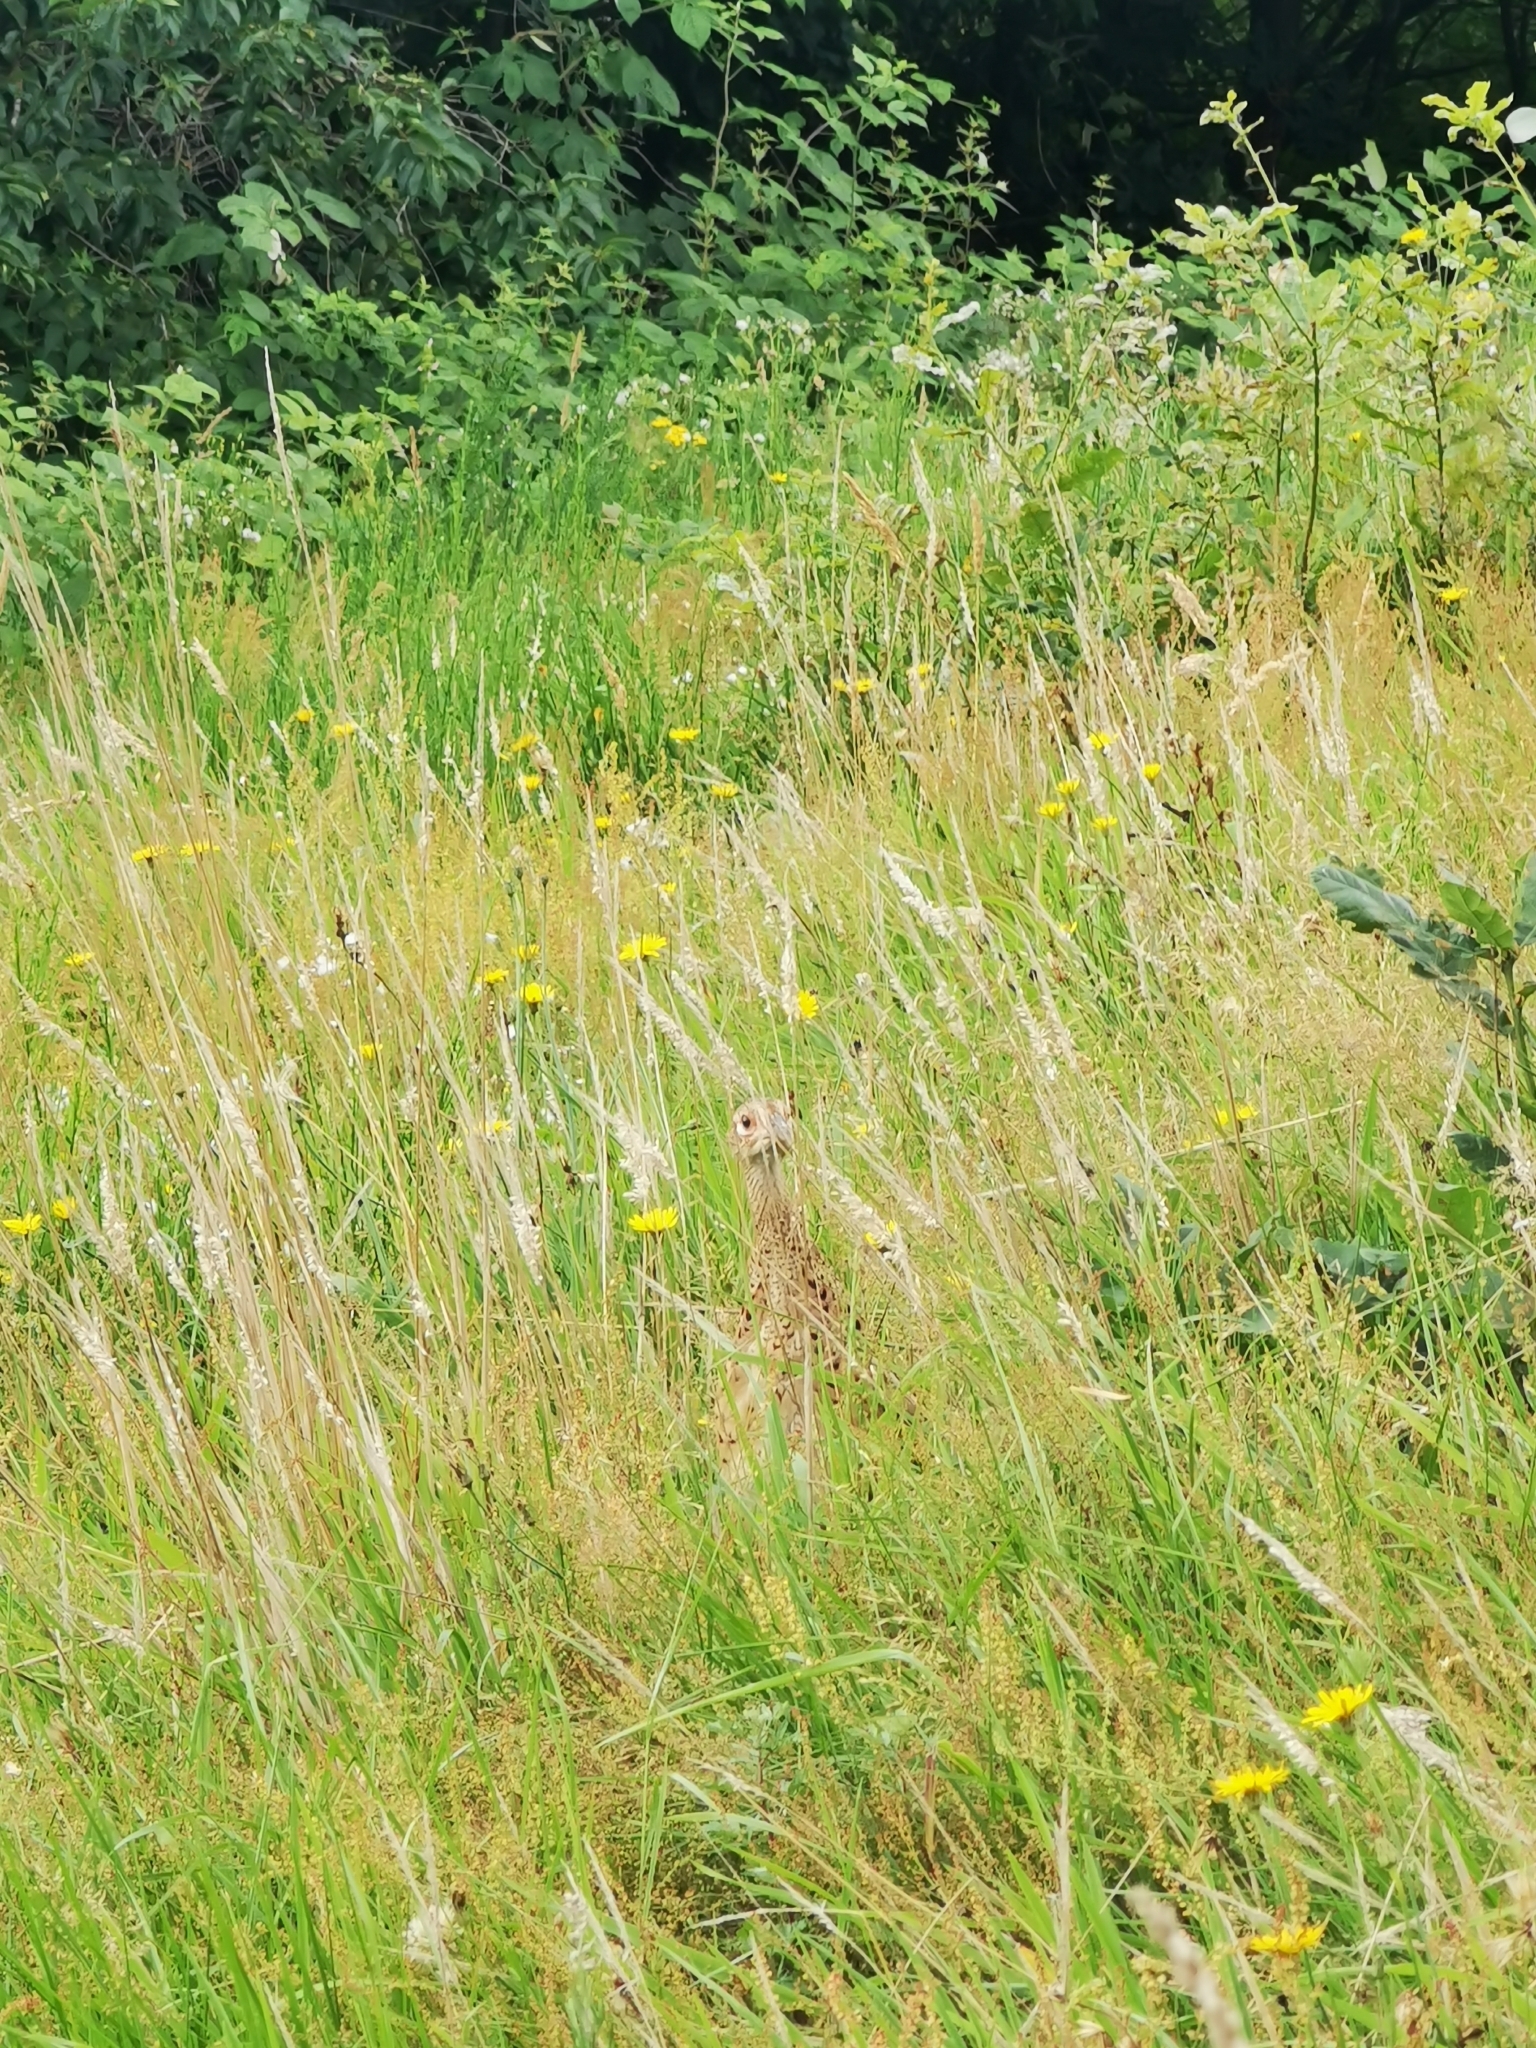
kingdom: Animalia
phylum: Chordata
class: Aves
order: Galliformes
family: Phasianidae
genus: Phasianus
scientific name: Phasianus colchicus
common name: Common pheasant
